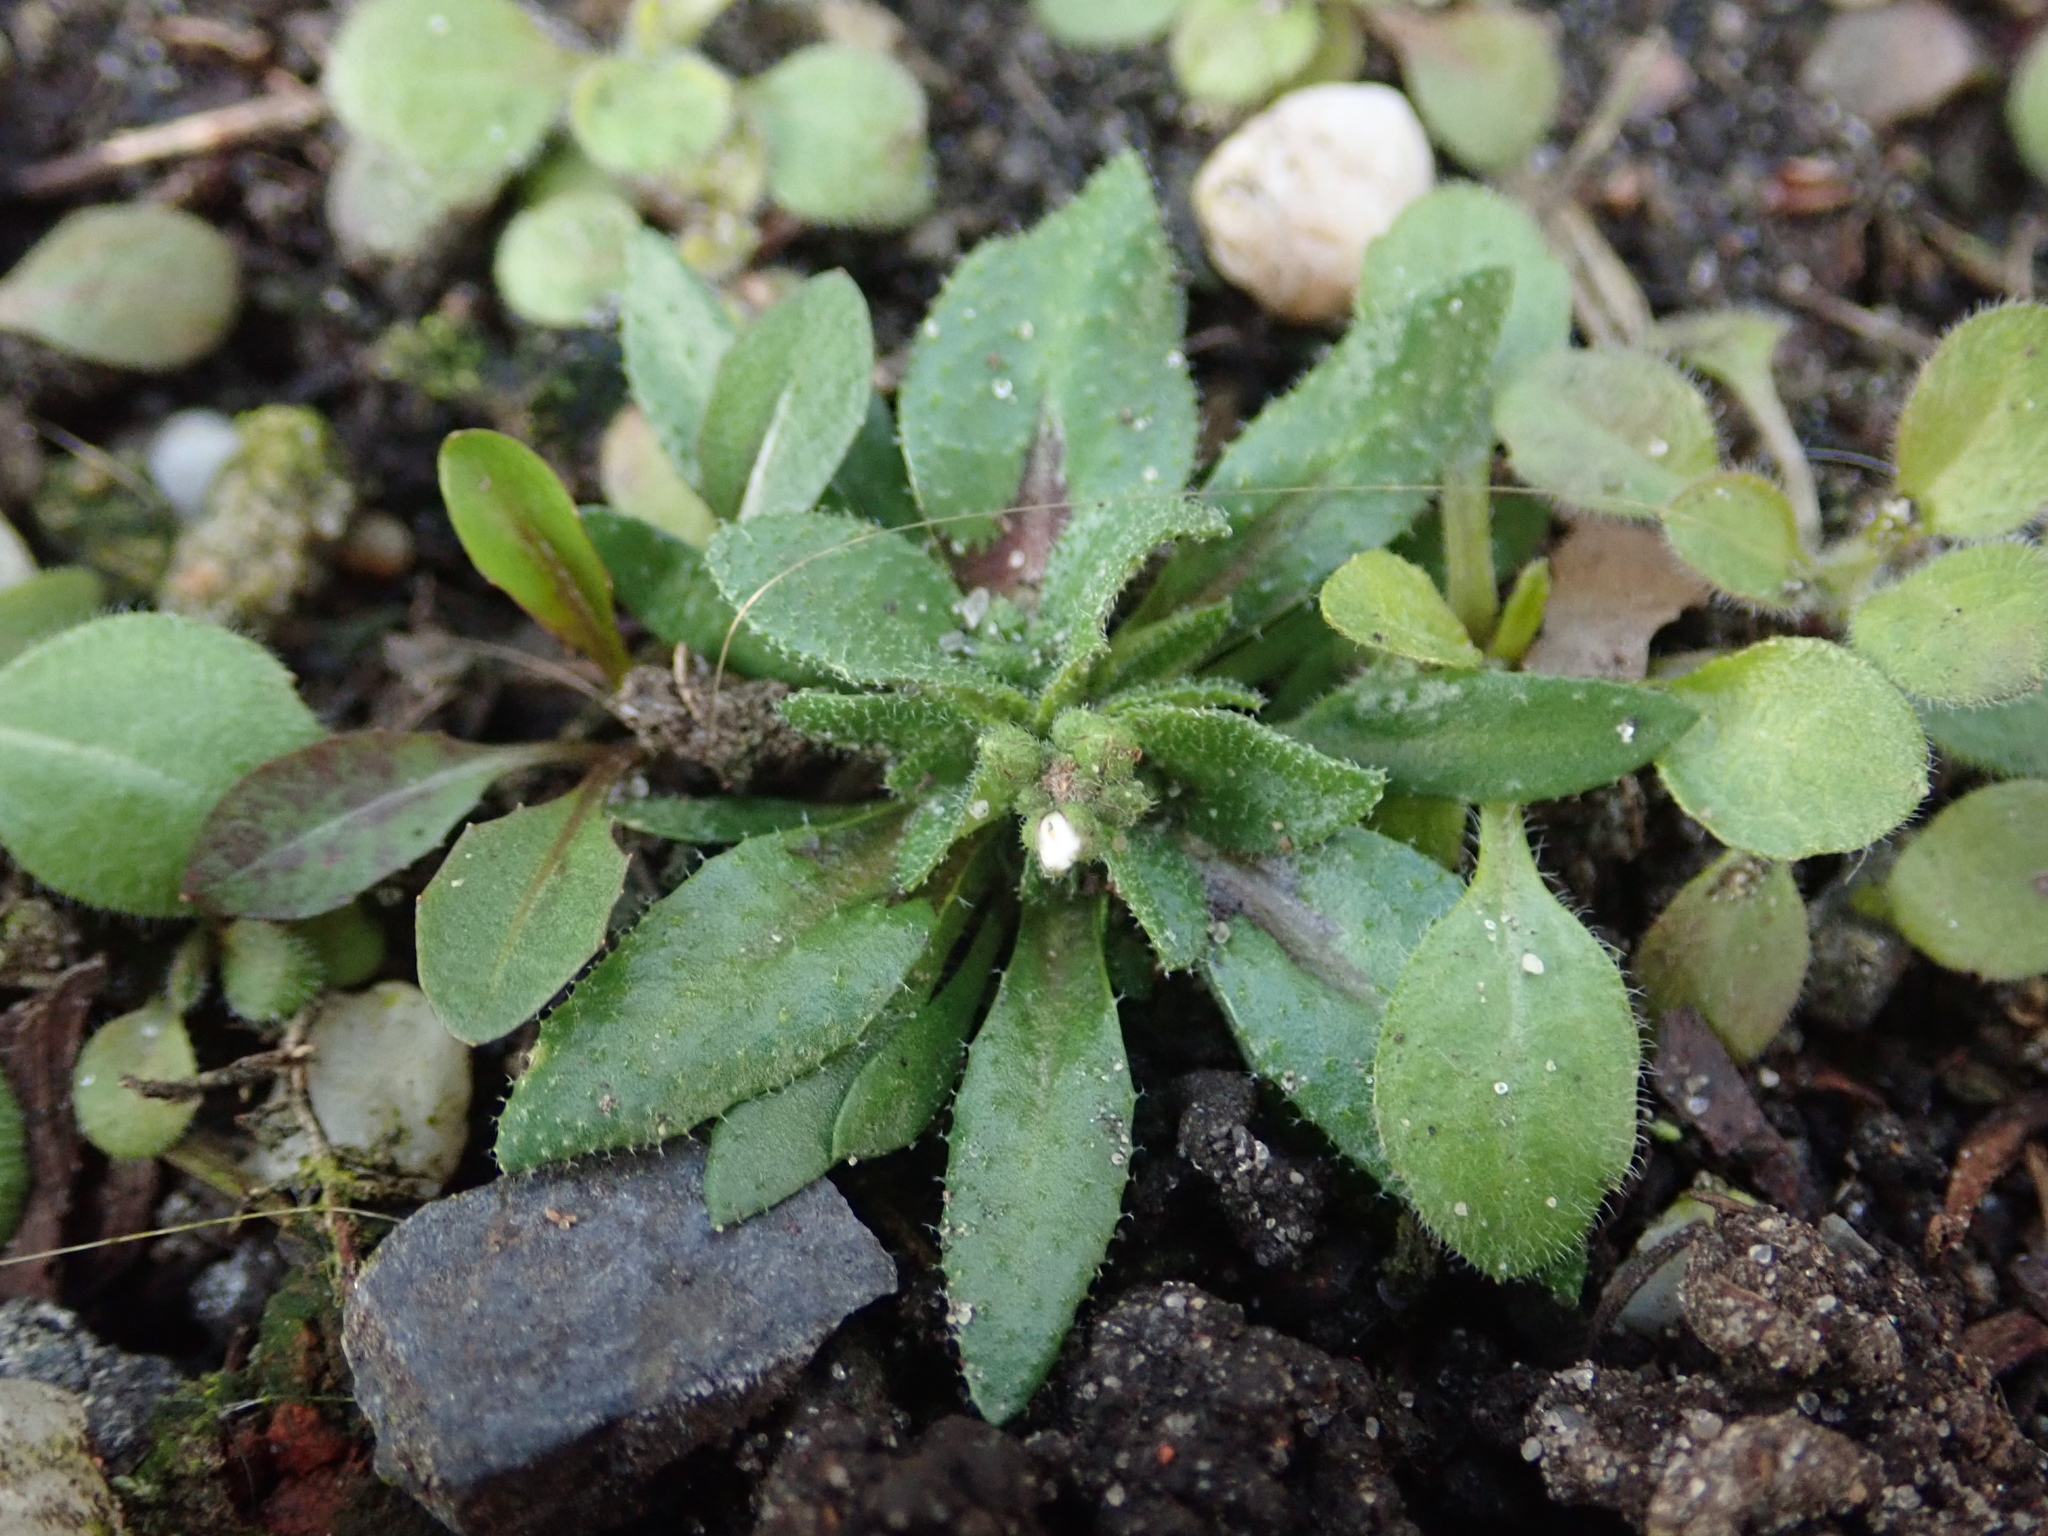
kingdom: Plantae
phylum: Tracheophyta
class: Magnoliopsida
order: Brassicales
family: Brassicaceae
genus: Draba
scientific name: Draba verna
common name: Spring draba
